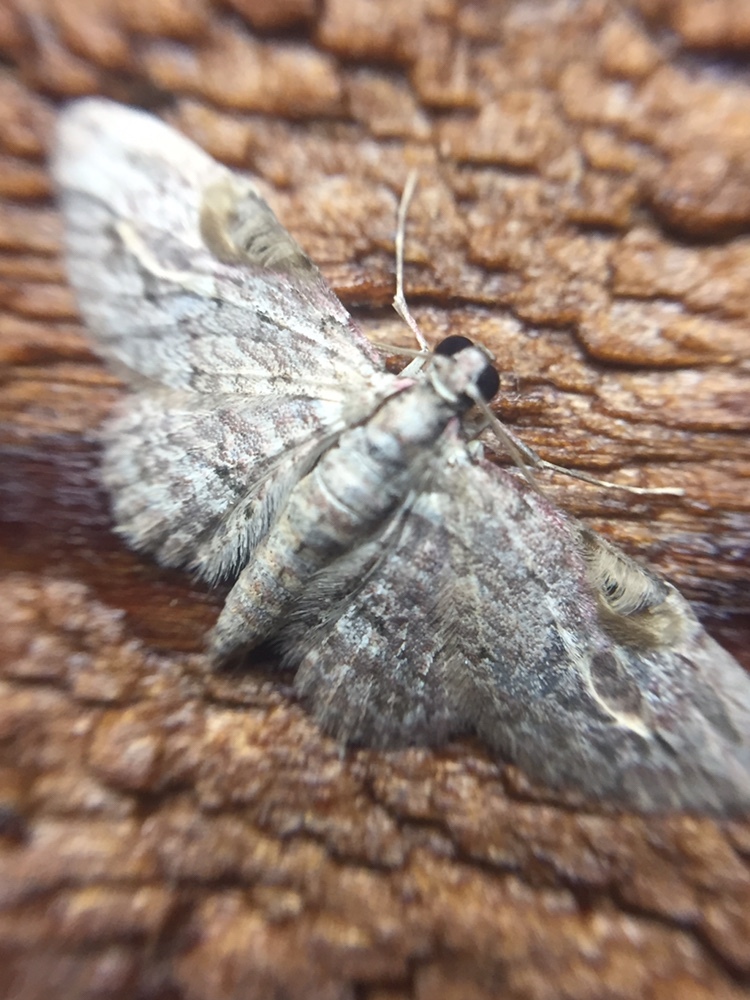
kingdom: Animalia
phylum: Arthropoda
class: Insecta
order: Lepidoptera
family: Geometridae
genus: Chloroclystis
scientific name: Chloroclystis insigillata
